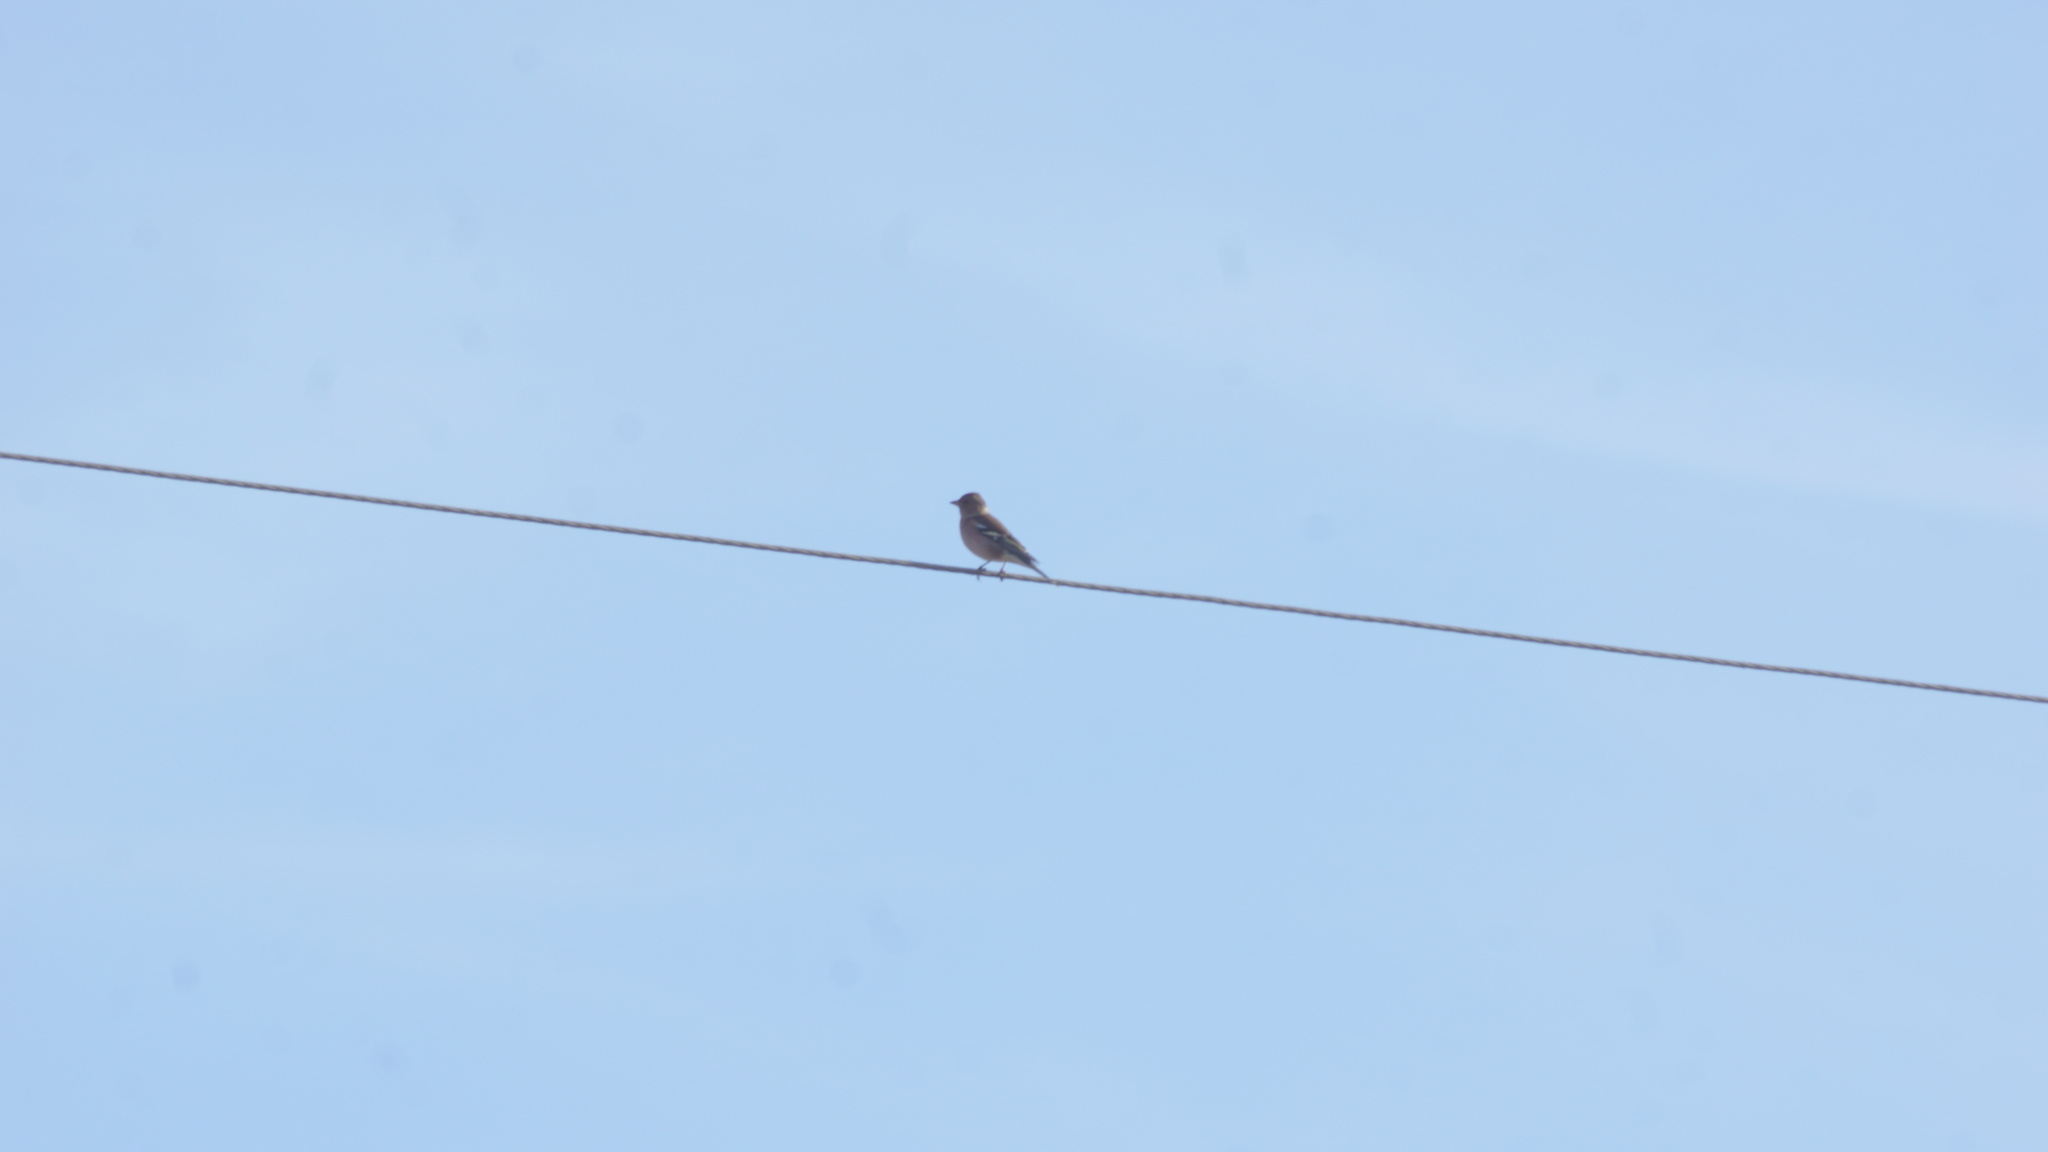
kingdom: Animalia
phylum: Chordata
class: Aves
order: Passeriformes
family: Fringillidae
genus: Fringilla
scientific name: Fringilla coelebs
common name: Common chaffinch
